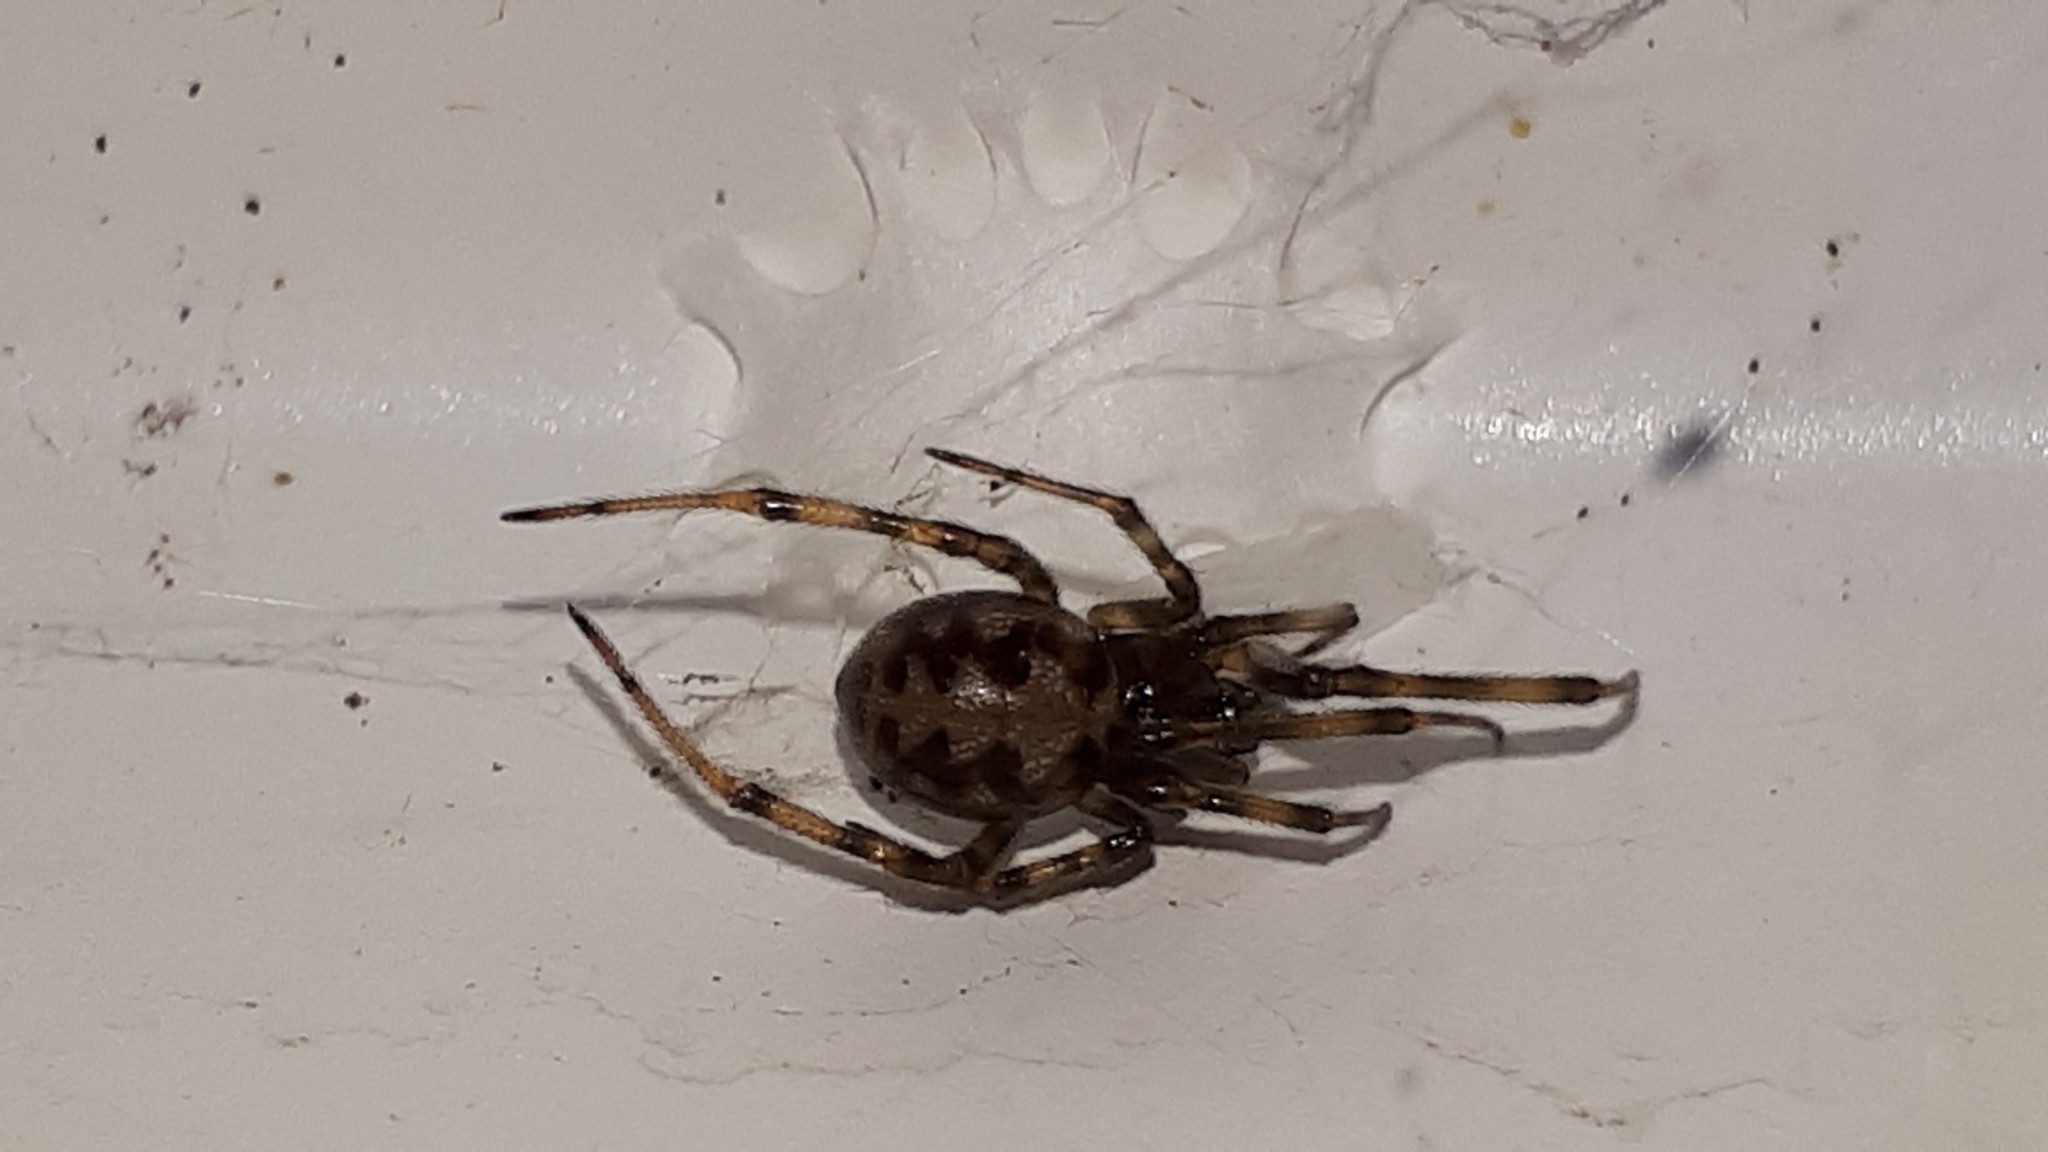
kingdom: Animalia
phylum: Arthropoda
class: Arachnida
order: Araneae
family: Theridiidae
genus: Steatoda
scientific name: Steatoda triangulosa
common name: Triangulate bud spider
